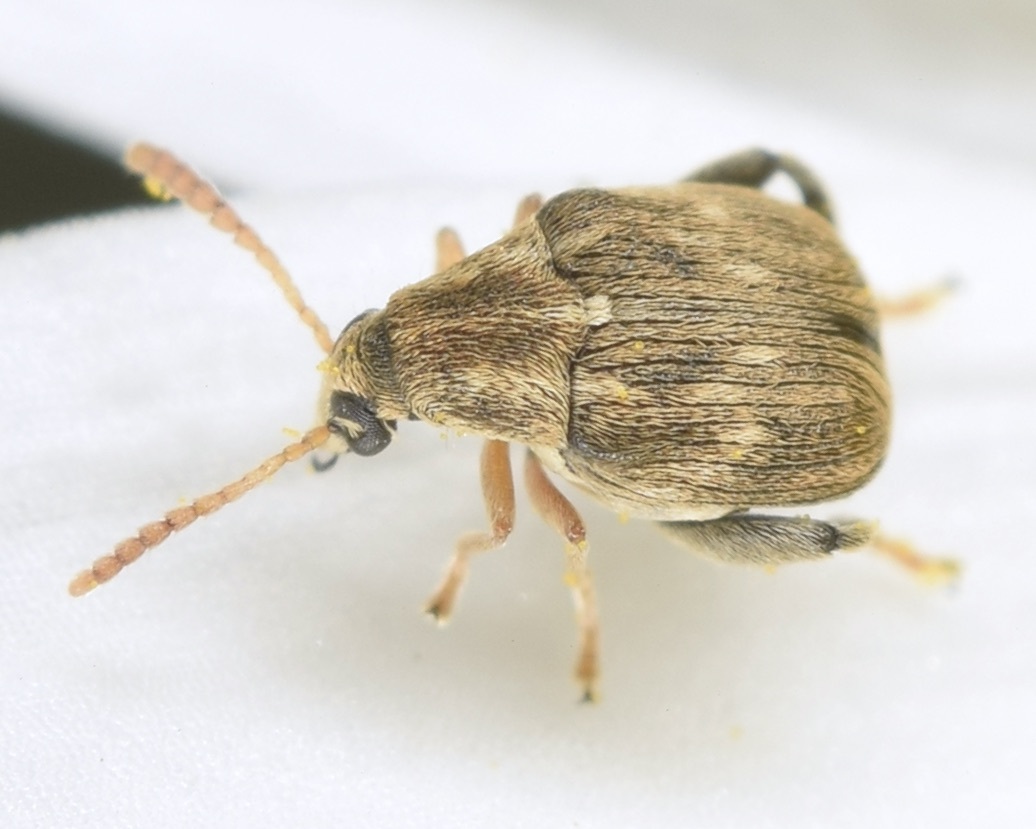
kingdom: Animalia
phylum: Arthropoda
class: Insecta
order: Coleoptera
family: Chrysomelidae
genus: Meibomeus
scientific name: Meibomeus musculus
